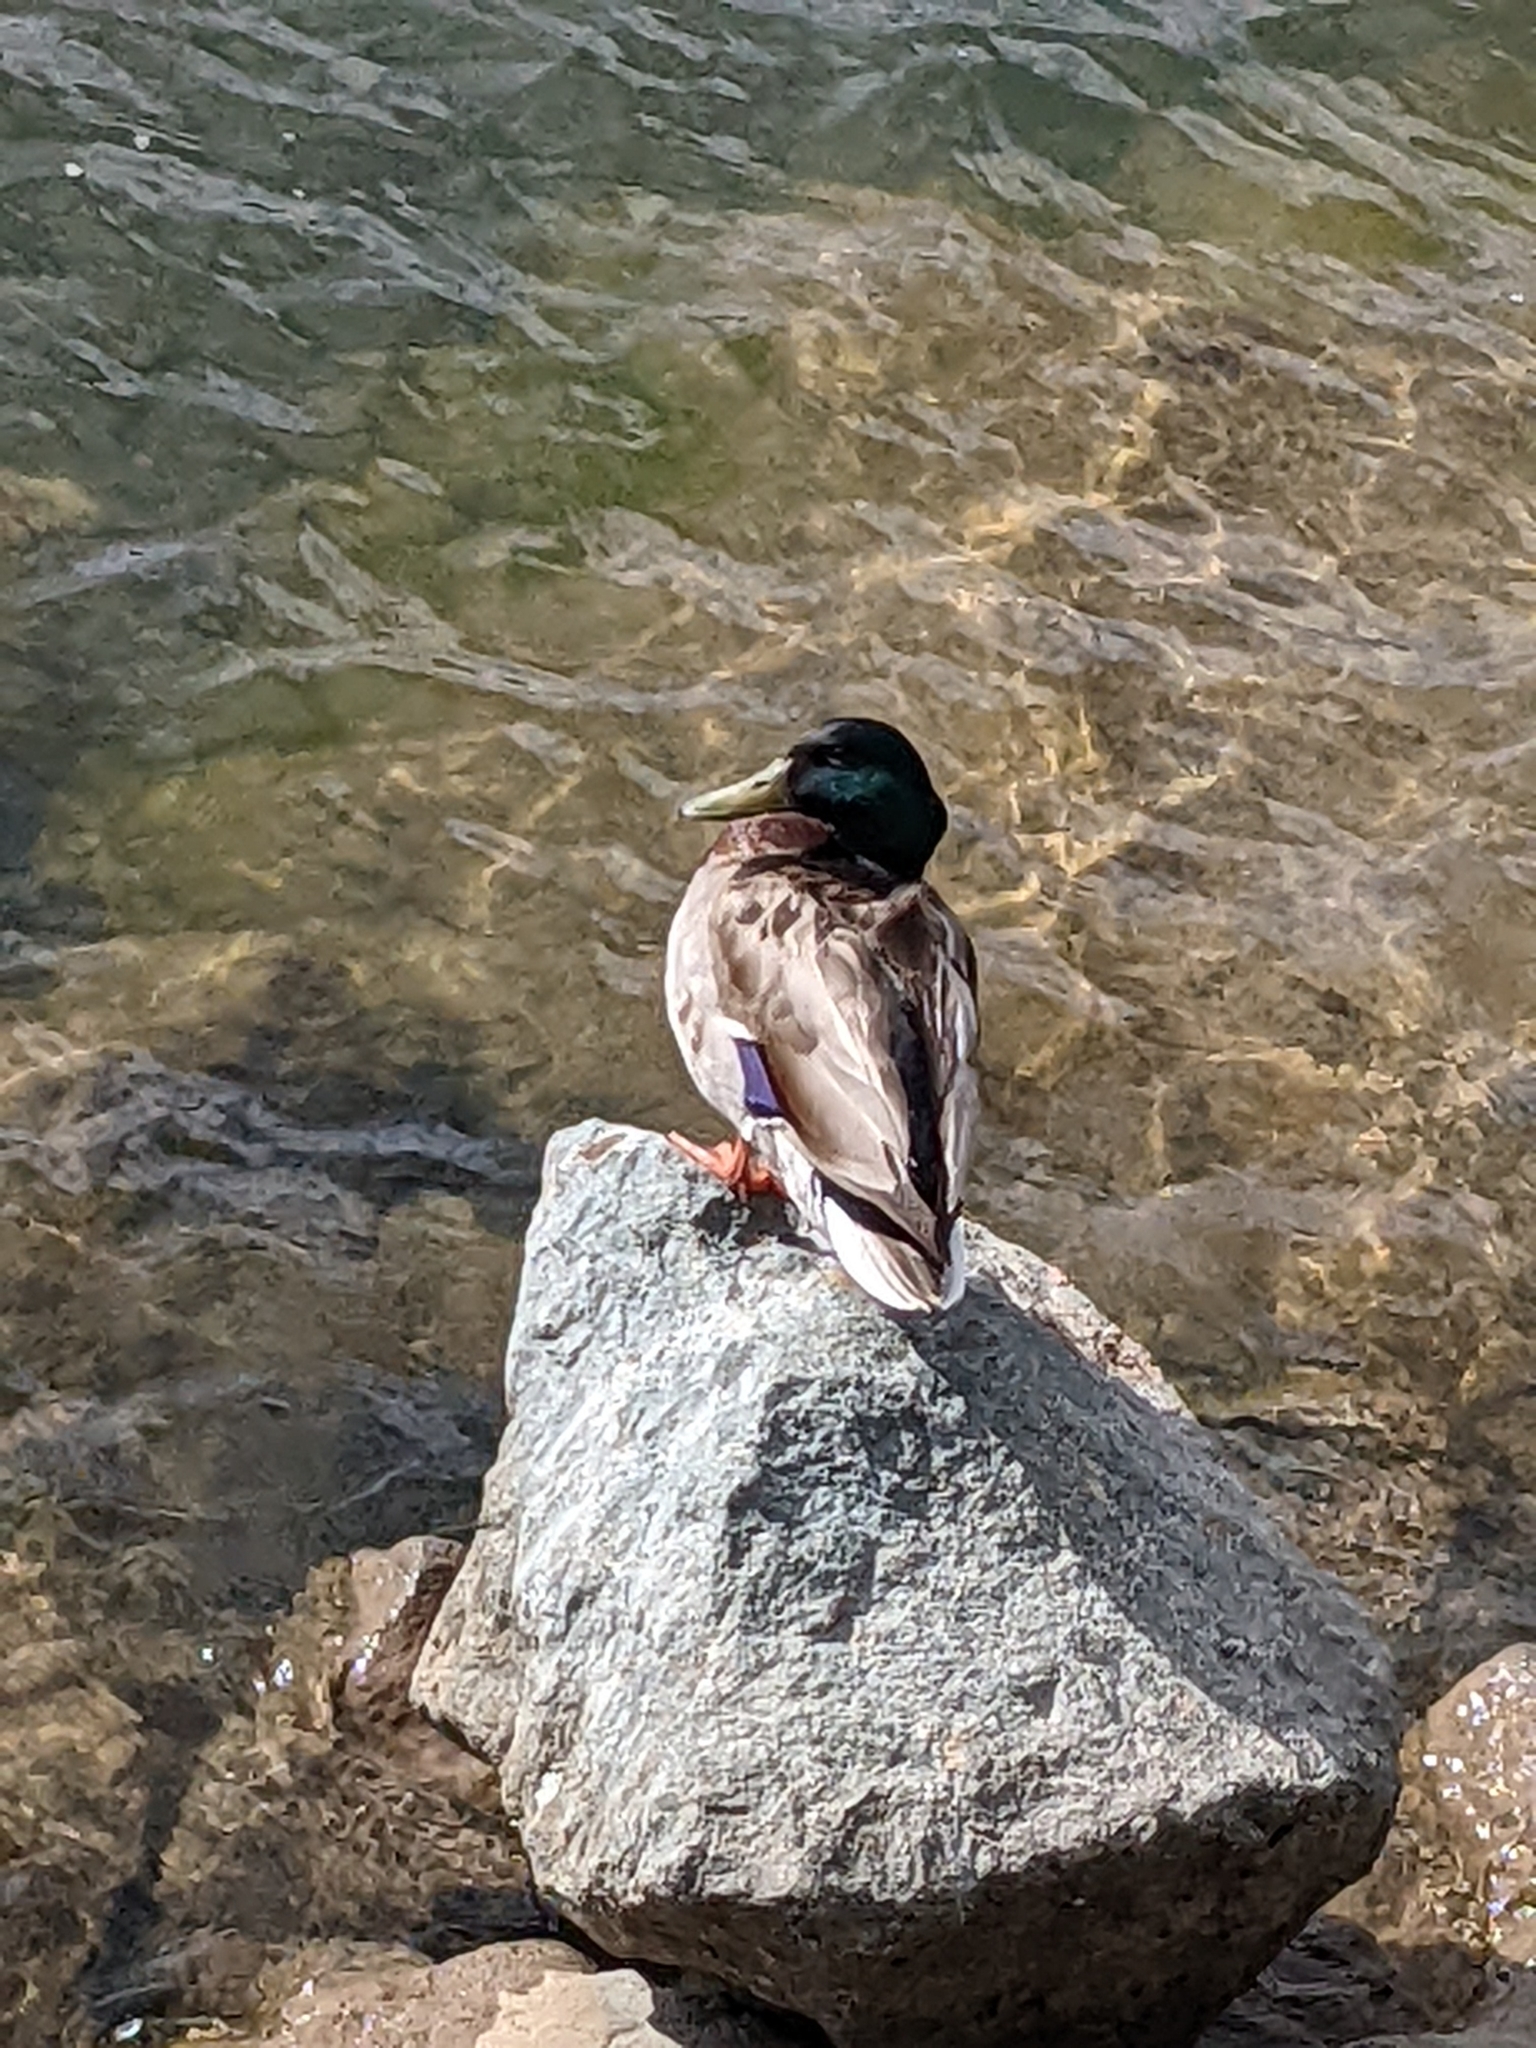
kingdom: Animalia
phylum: Chordata
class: Aves
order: Anseriformes
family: Anatidae
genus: Anas
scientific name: Anas platyrhynchos
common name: Mallard
